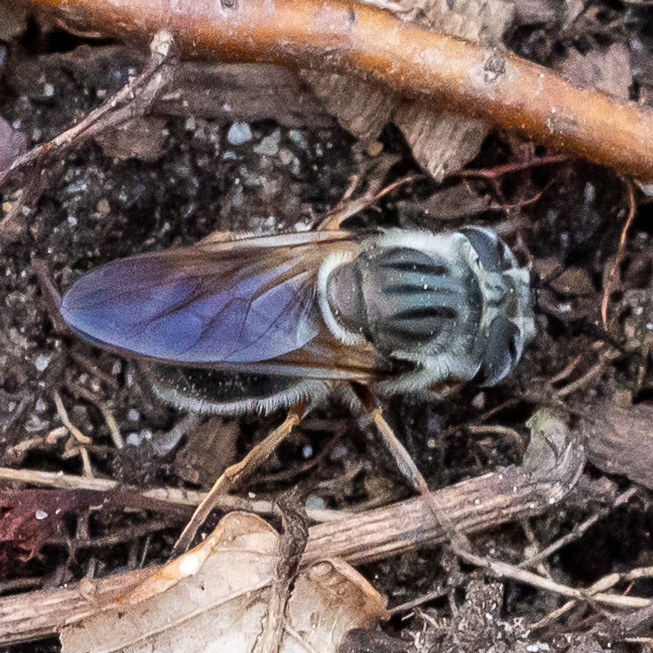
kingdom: Animalia
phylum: Arthropoda
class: Insecta
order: Diptera
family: Syrphidae
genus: Callicera
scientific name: Callicera erratica
